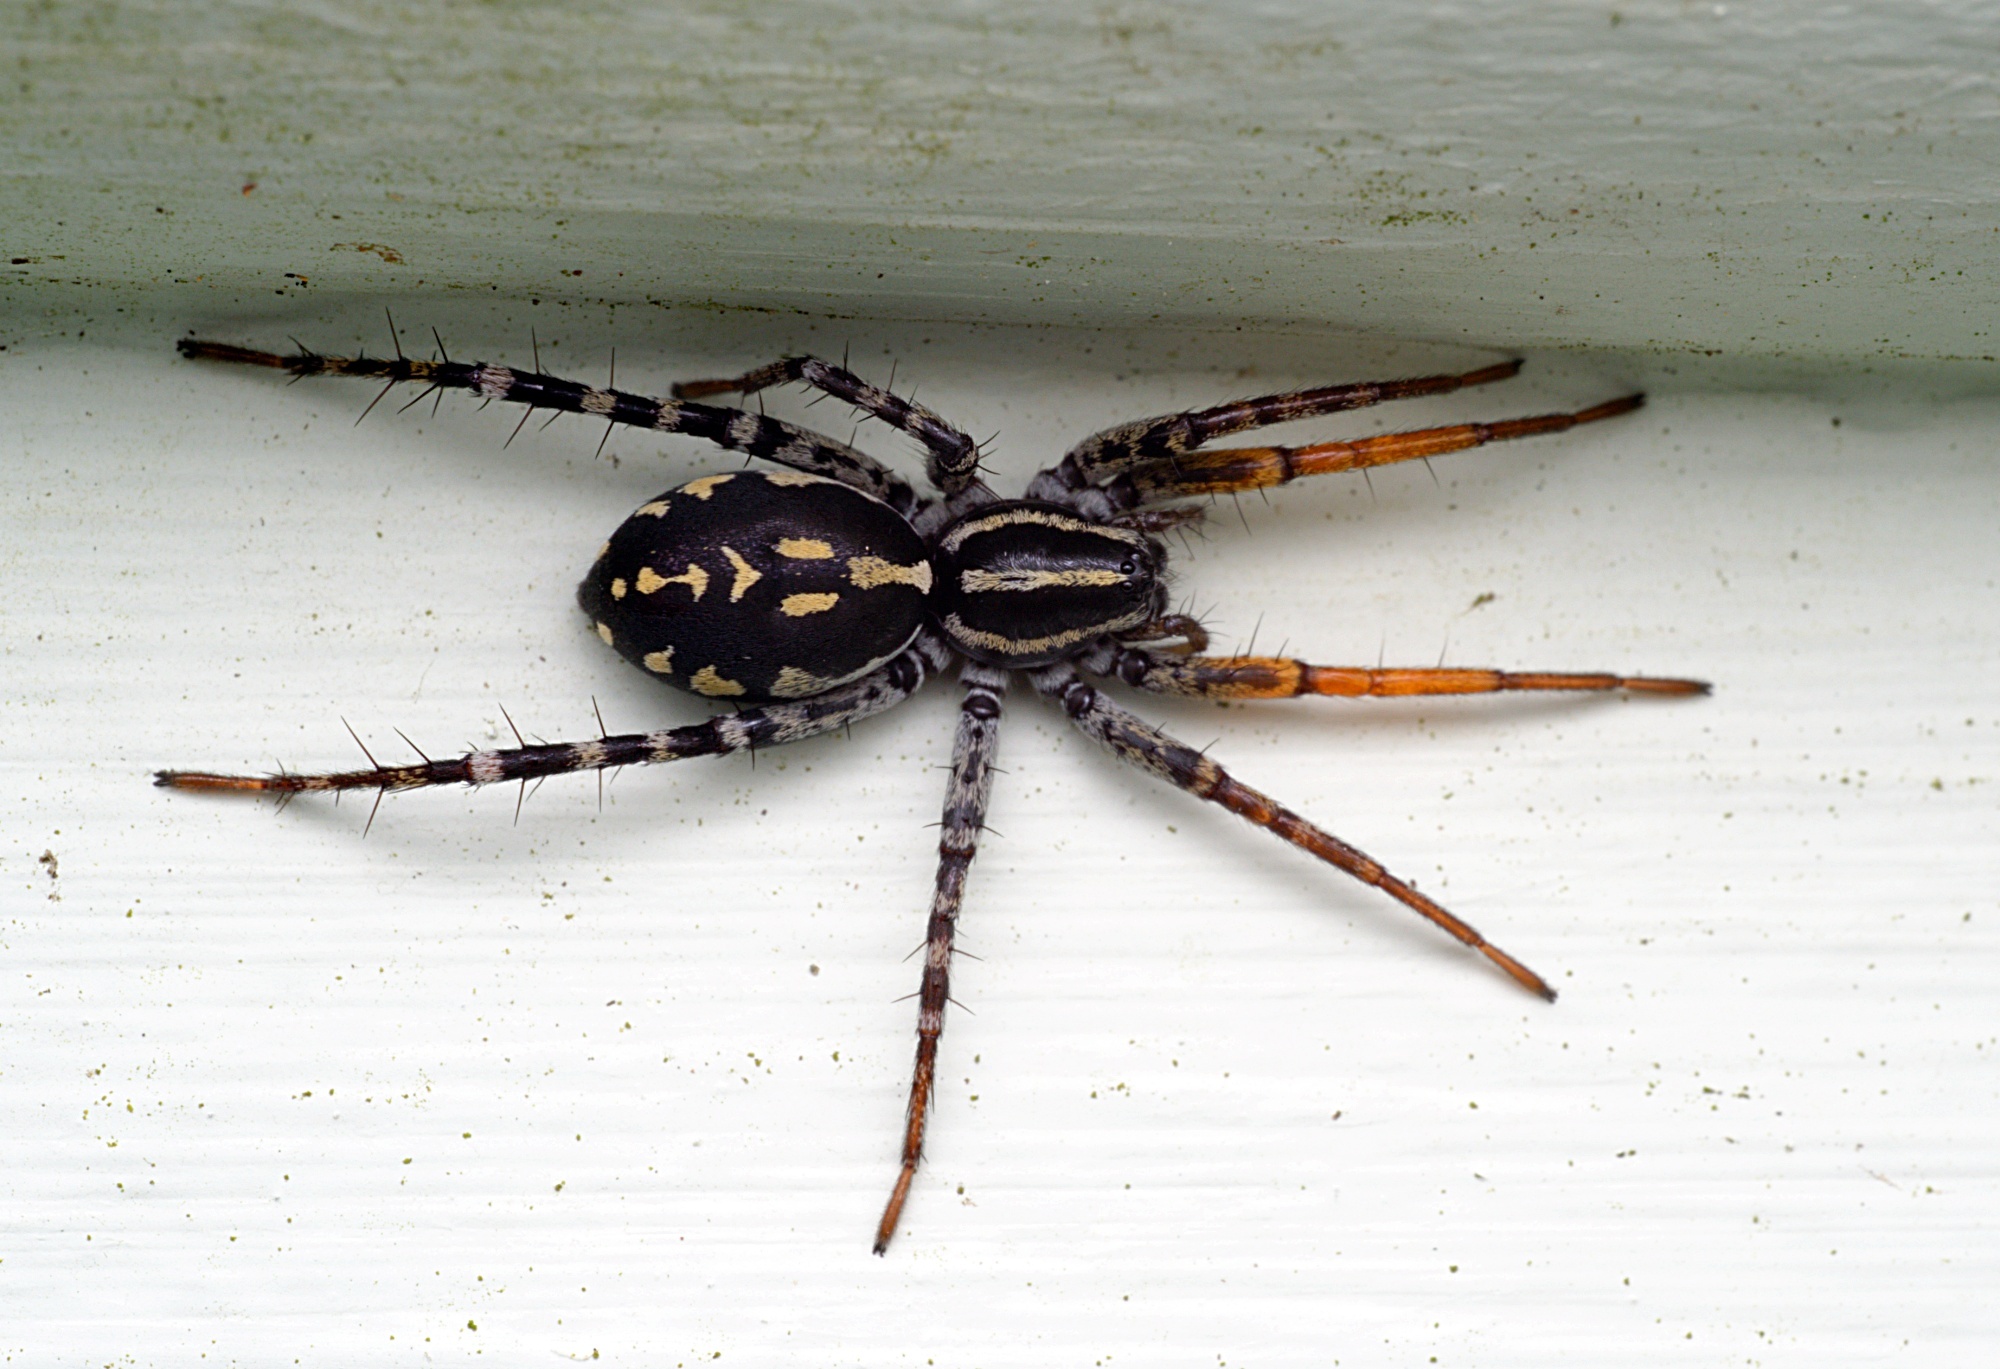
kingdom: Animalia
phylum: Arthropoda
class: Arachnida
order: Araneae
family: Corinnidae
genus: Nyssus
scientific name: Nyssus coloripes
